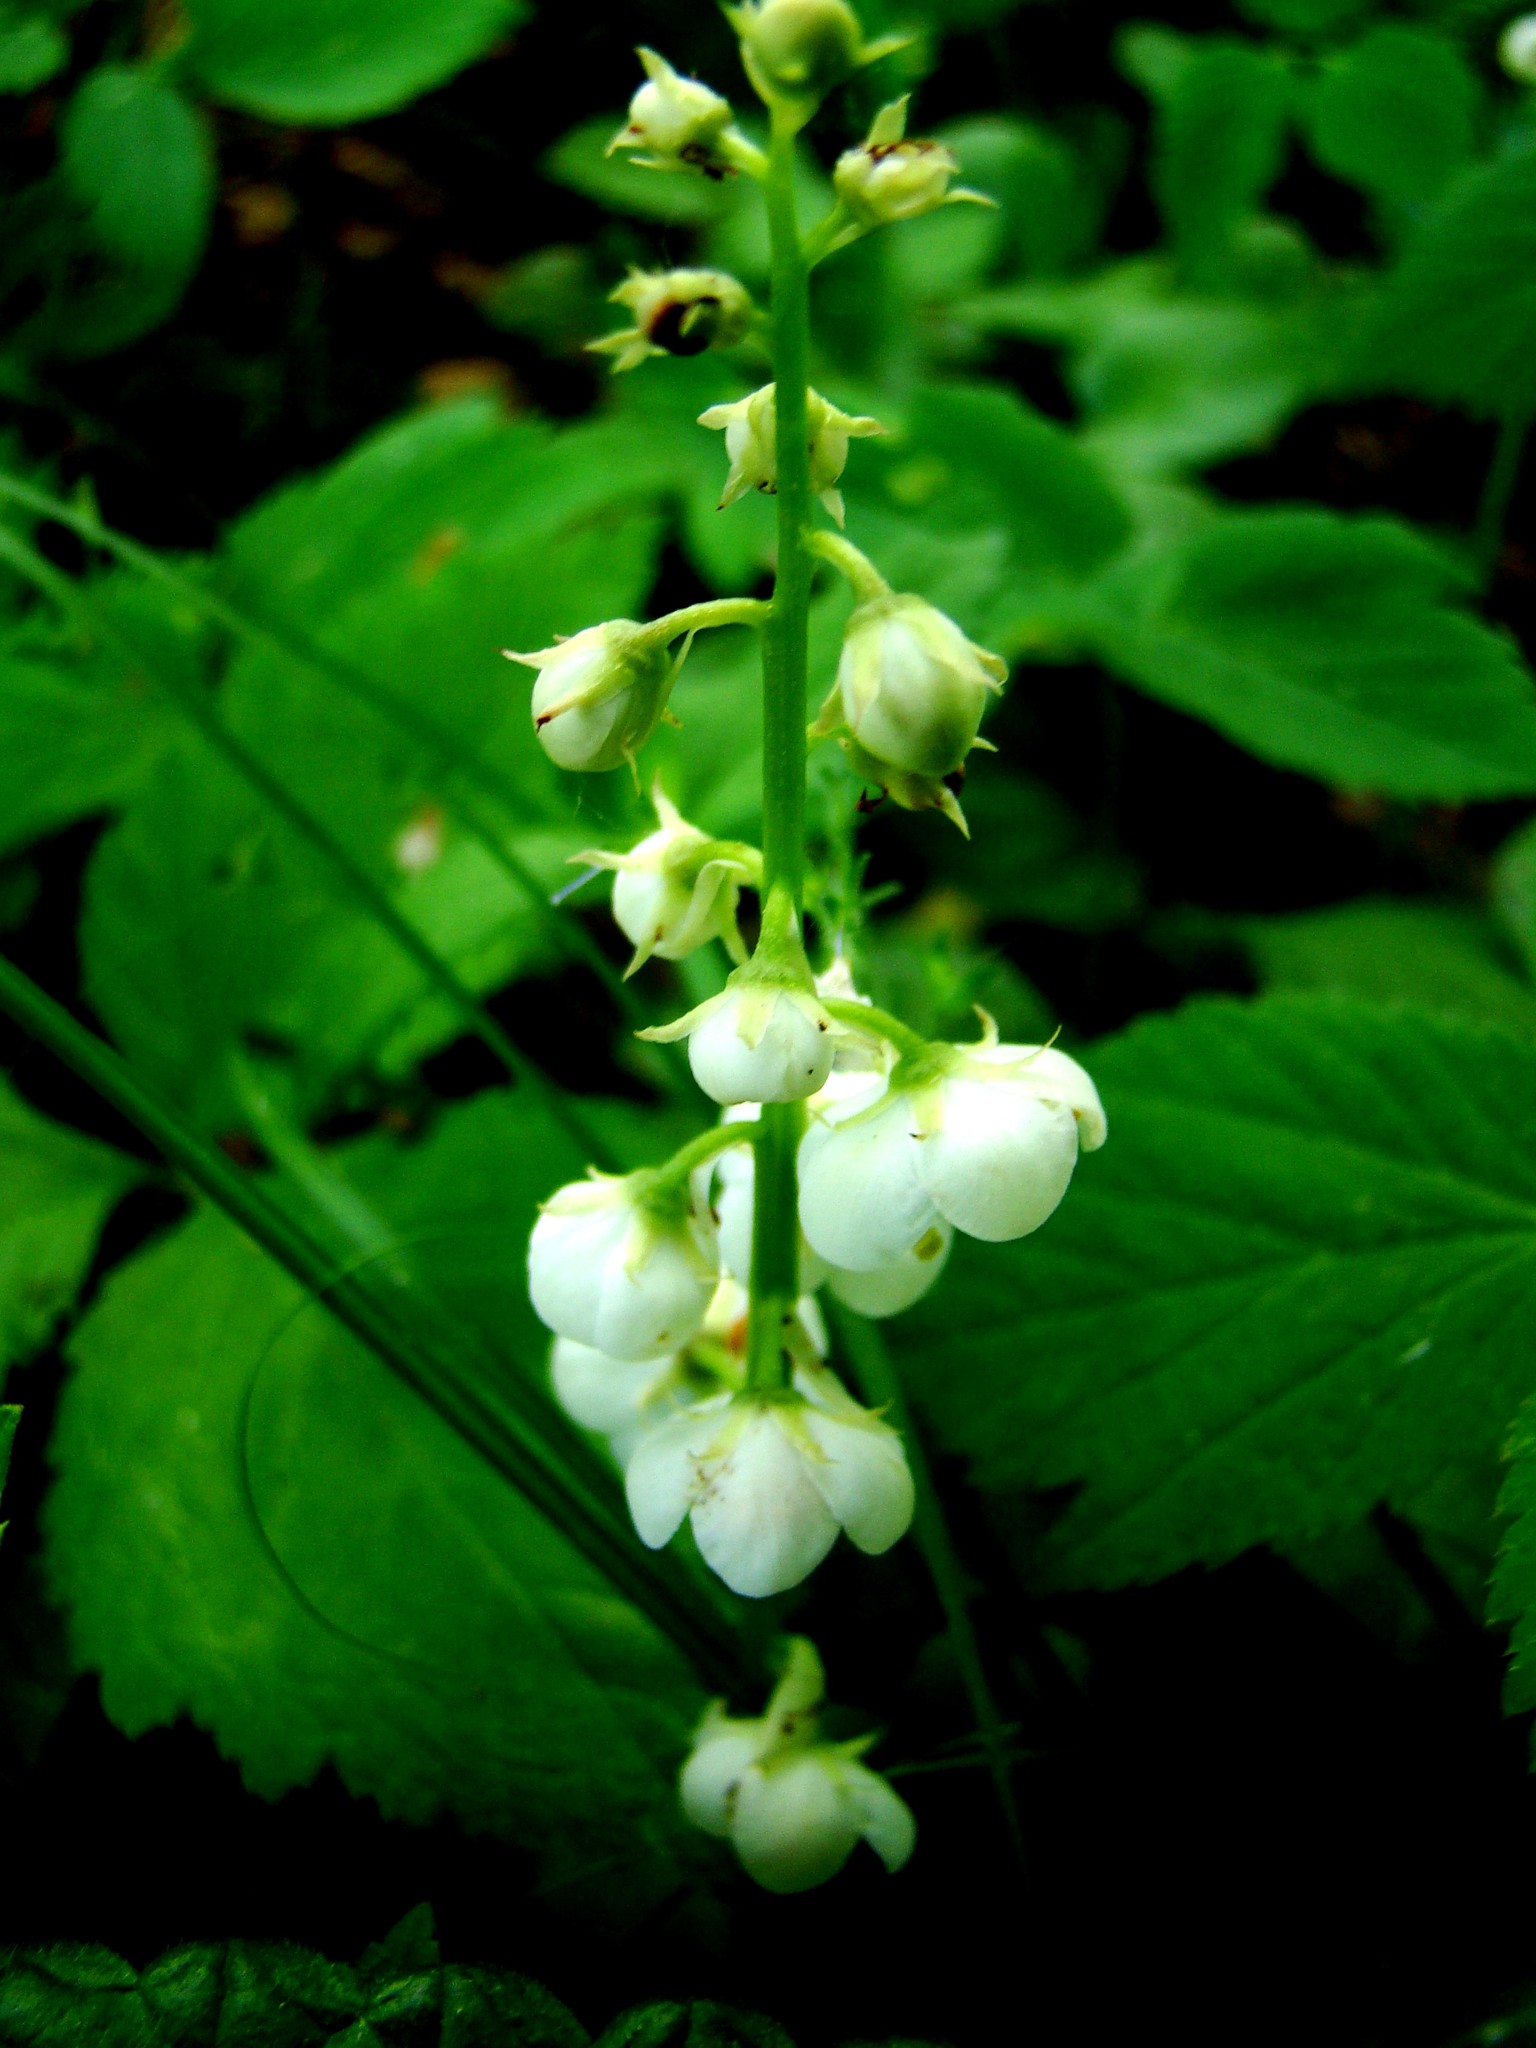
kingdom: Plantae
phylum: Tracheophyta
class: Magnoliopsida
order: Ericales
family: Ericaceae
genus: Pyrola
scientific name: Pyrola rotundifolia
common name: Round-leaved wintergreen
